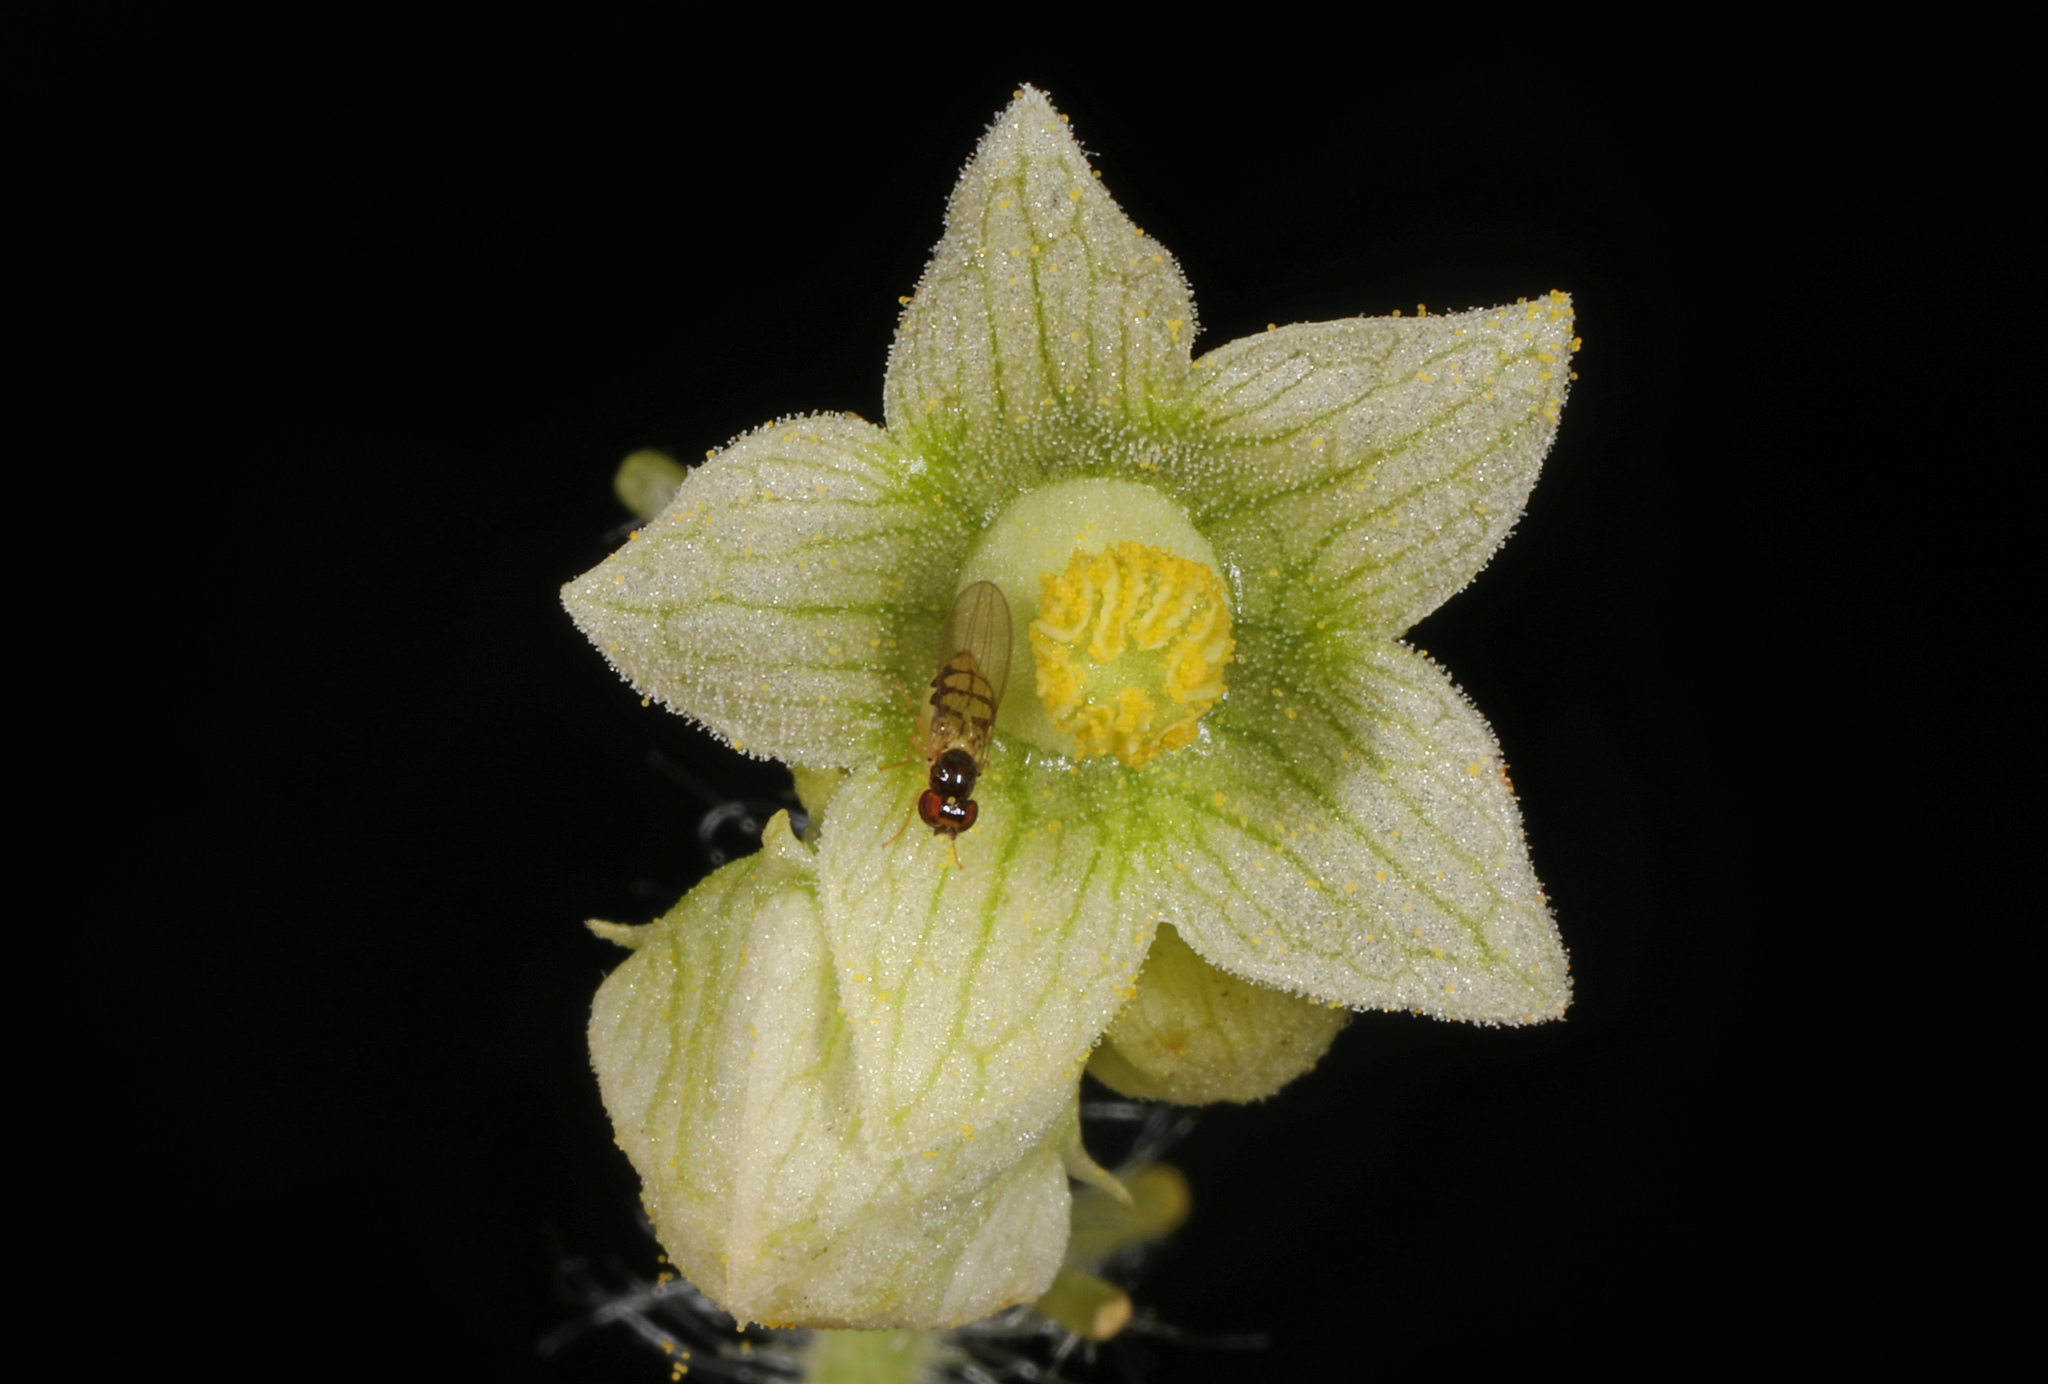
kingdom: Plantae
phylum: Tracheophyta
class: Magnoliopsida
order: Cucurbitales
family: Cucurbitaceae
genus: Sicyos
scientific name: Sicyos angulatus
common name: Angled burr cucumber
